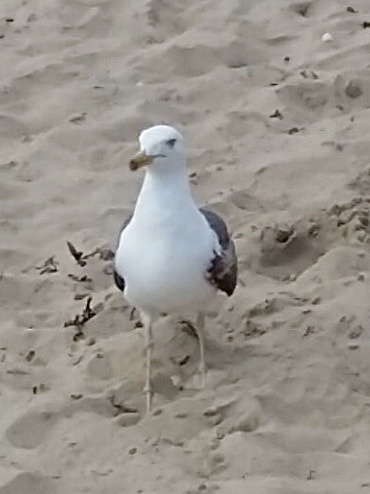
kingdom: Animalia
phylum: Chordata
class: Aves
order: Charadriiformes
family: Laridae
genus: Larus
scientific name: Larus fuscus
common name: Lesser black-backed gull
